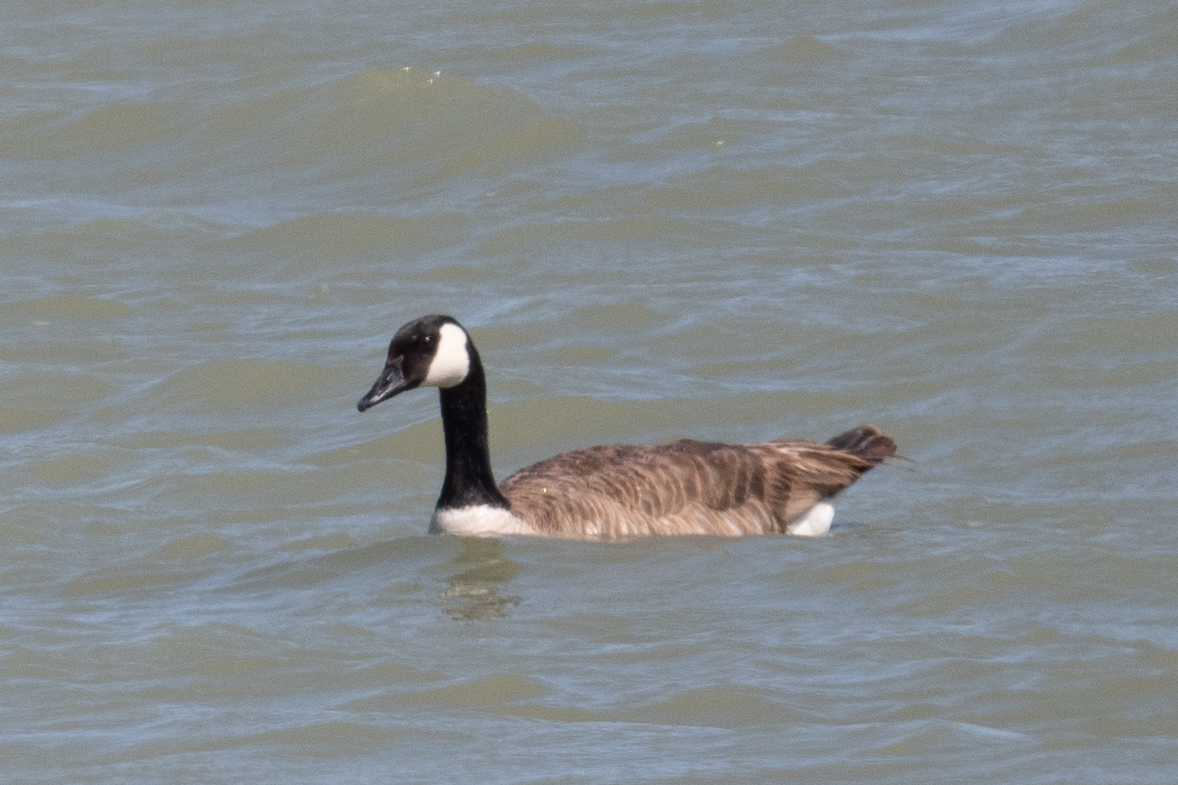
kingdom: Animalia
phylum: Chordata
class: Aves
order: Anseriformes
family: Anatidae
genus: Branta
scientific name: Branta canadensis
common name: Canada goose
